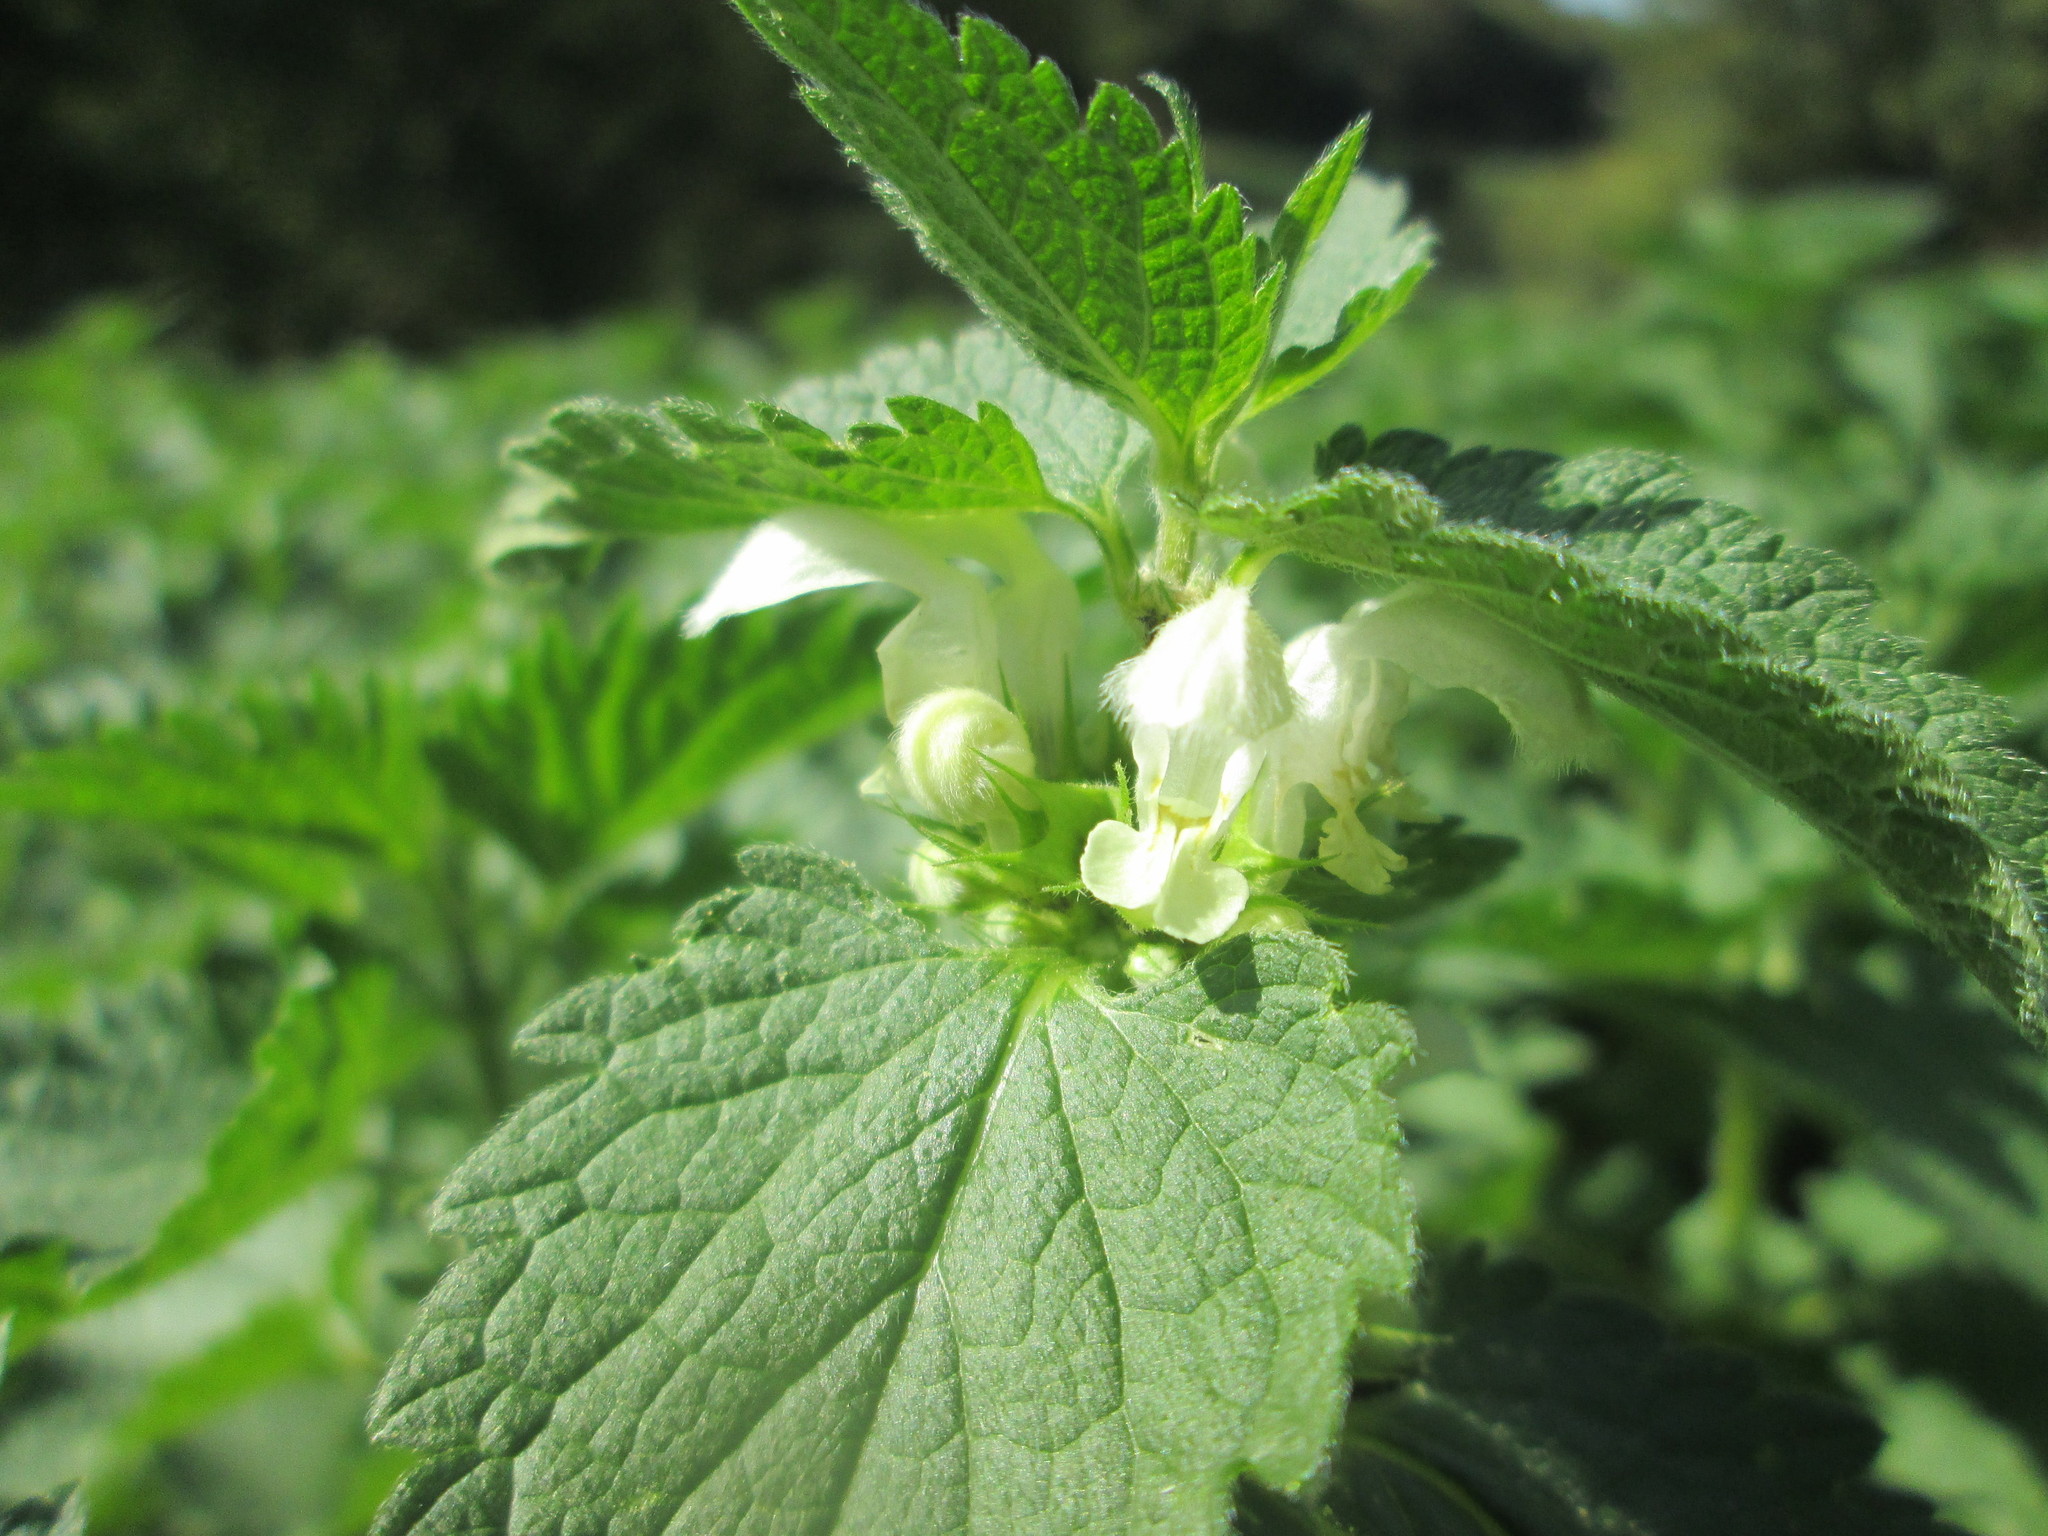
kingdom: Plantae
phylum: Tracheophyta
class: Magnoliopsida
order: Lamiales
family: Lamiaceae
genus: Lamium
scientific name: Lamium album
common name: White dead-nettle
